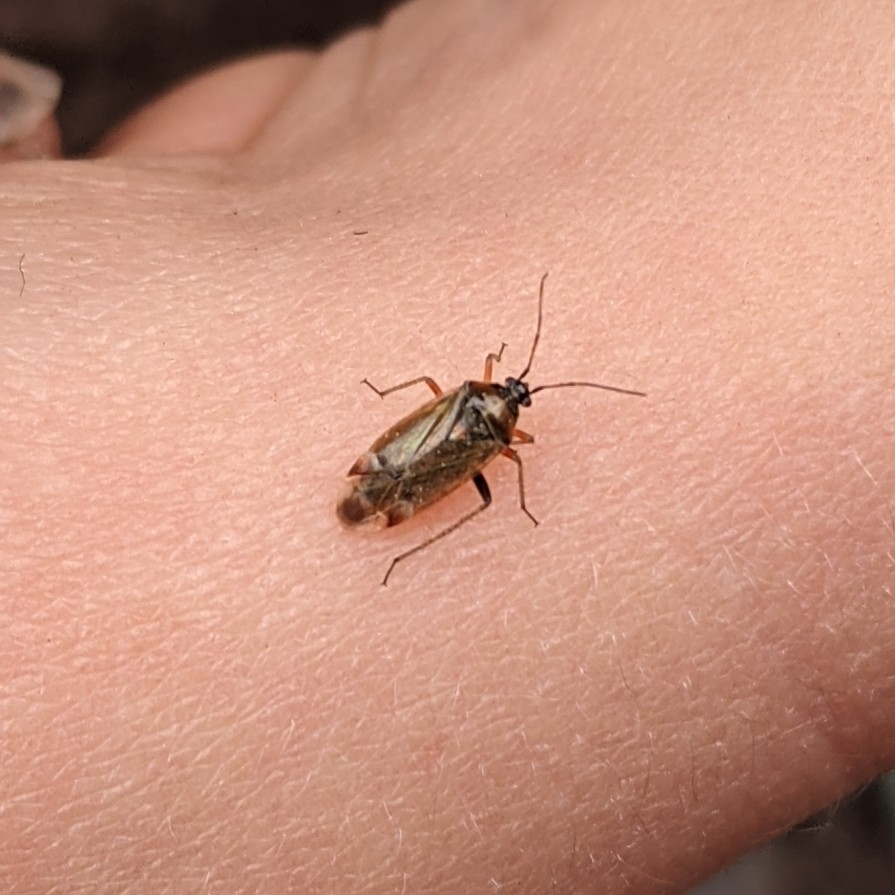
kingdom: Animalia
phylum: Arthropoda
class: Insecta
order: Hemiptera
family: Miridae
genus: Harpocera
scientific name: Harpocera thoracica
